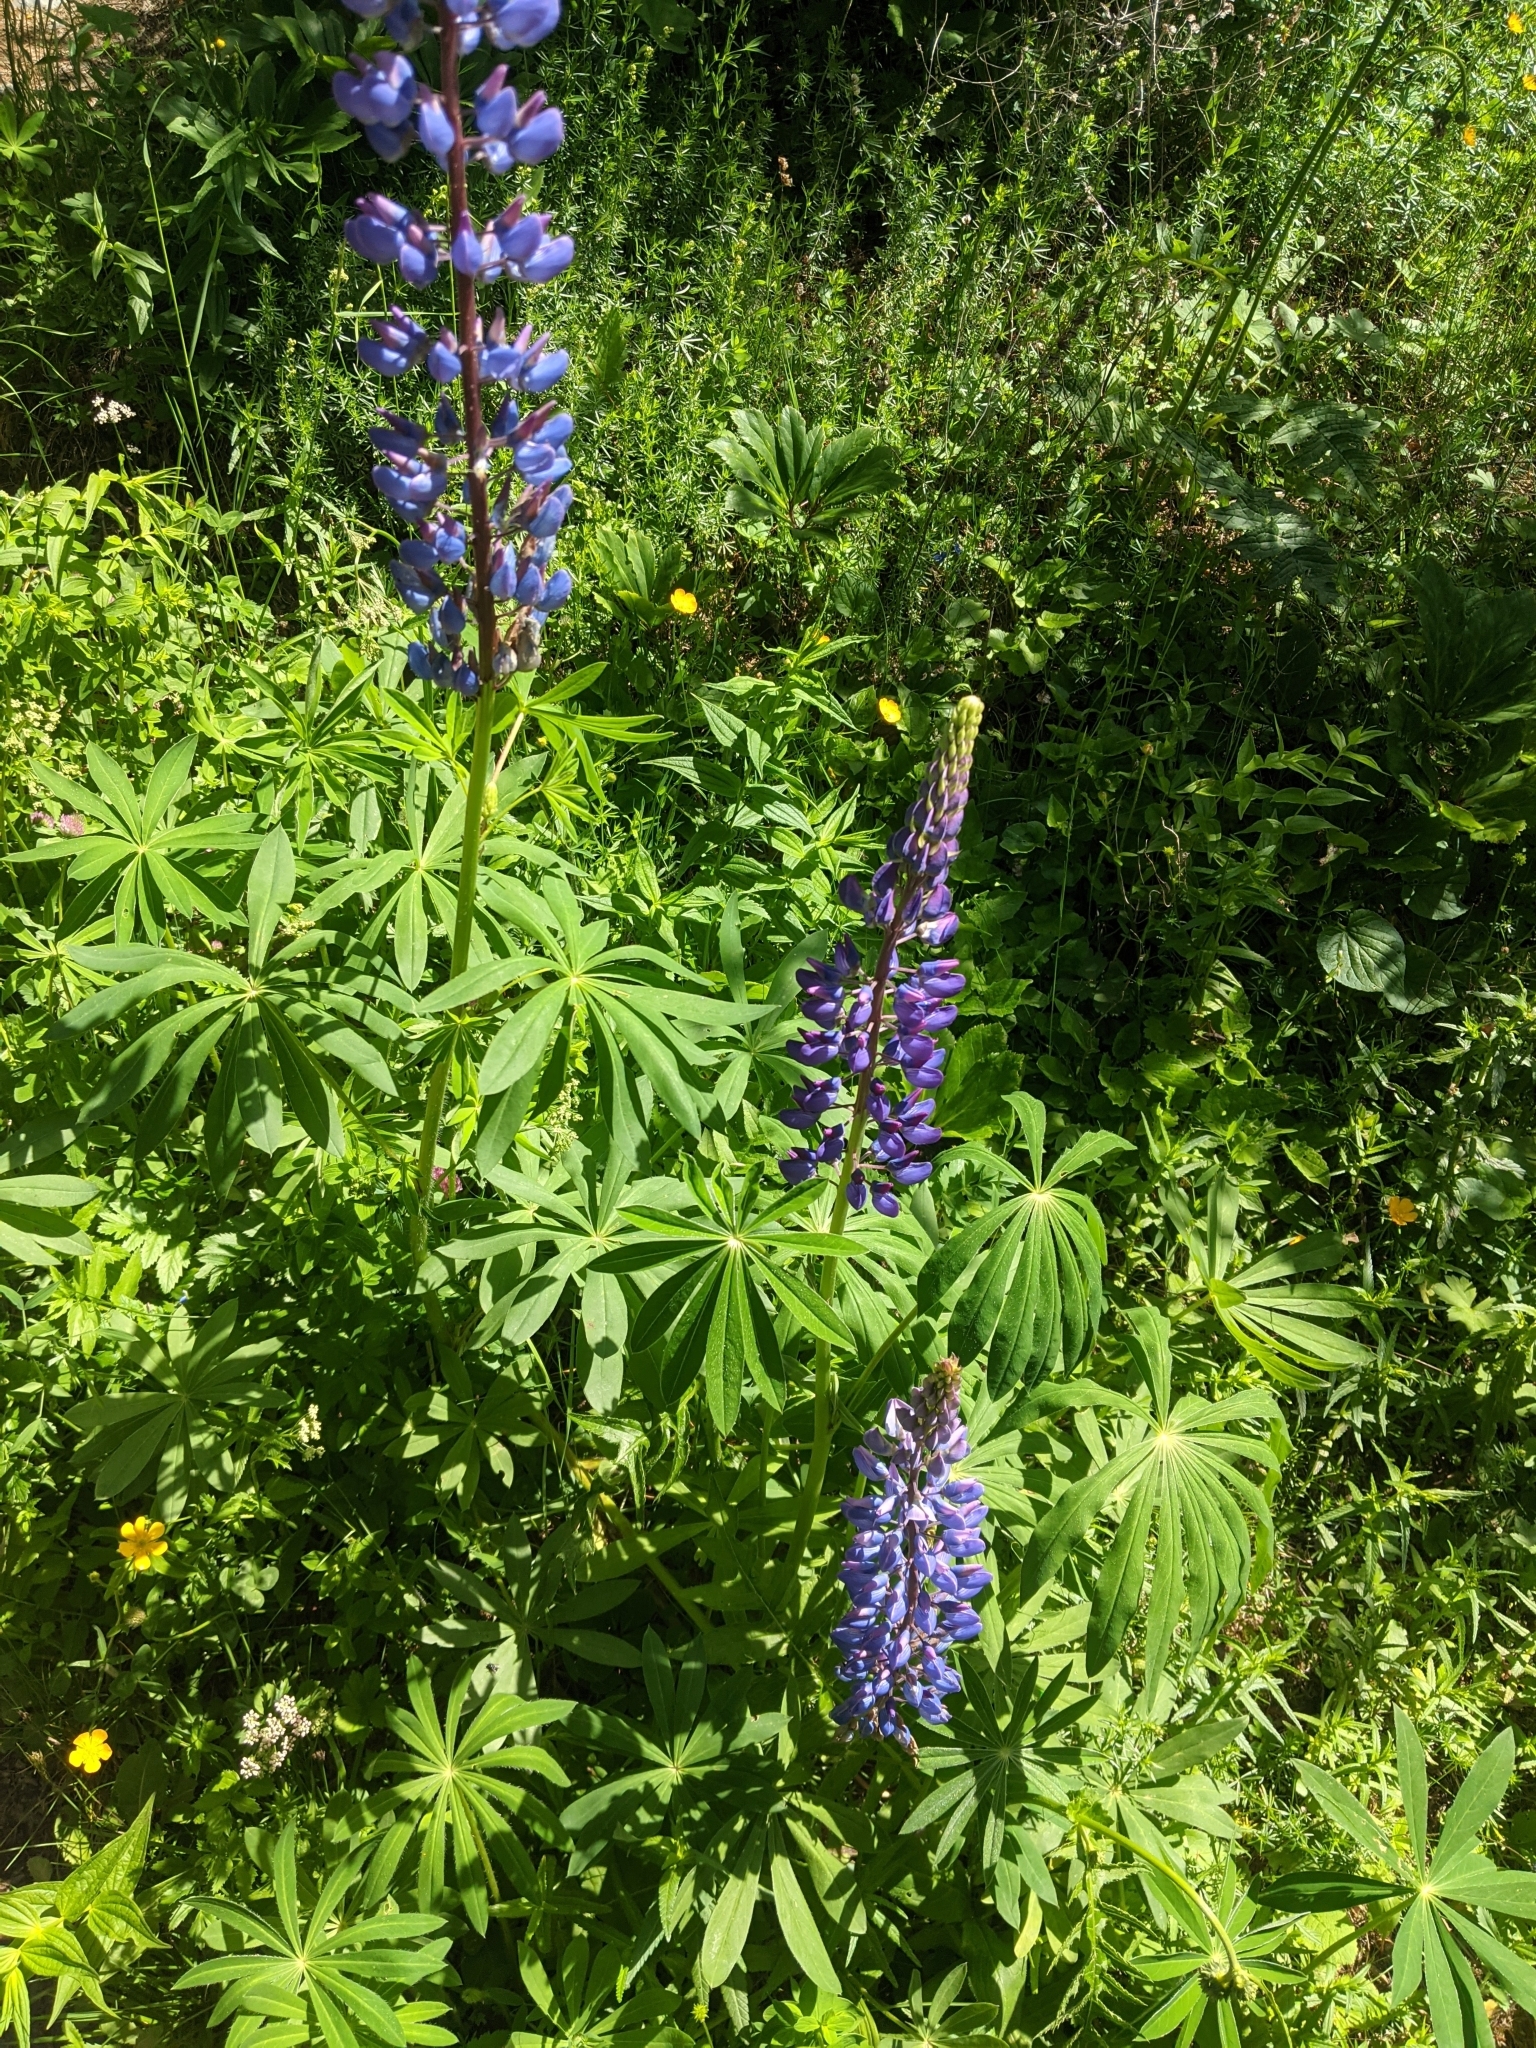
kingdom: Plantae
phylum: Tracheophyta
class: Magnoliopsida
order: Fabales
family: Fabaceae
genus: Lupinus
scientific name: Lupinus polyphyllus
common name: Garden lupin
